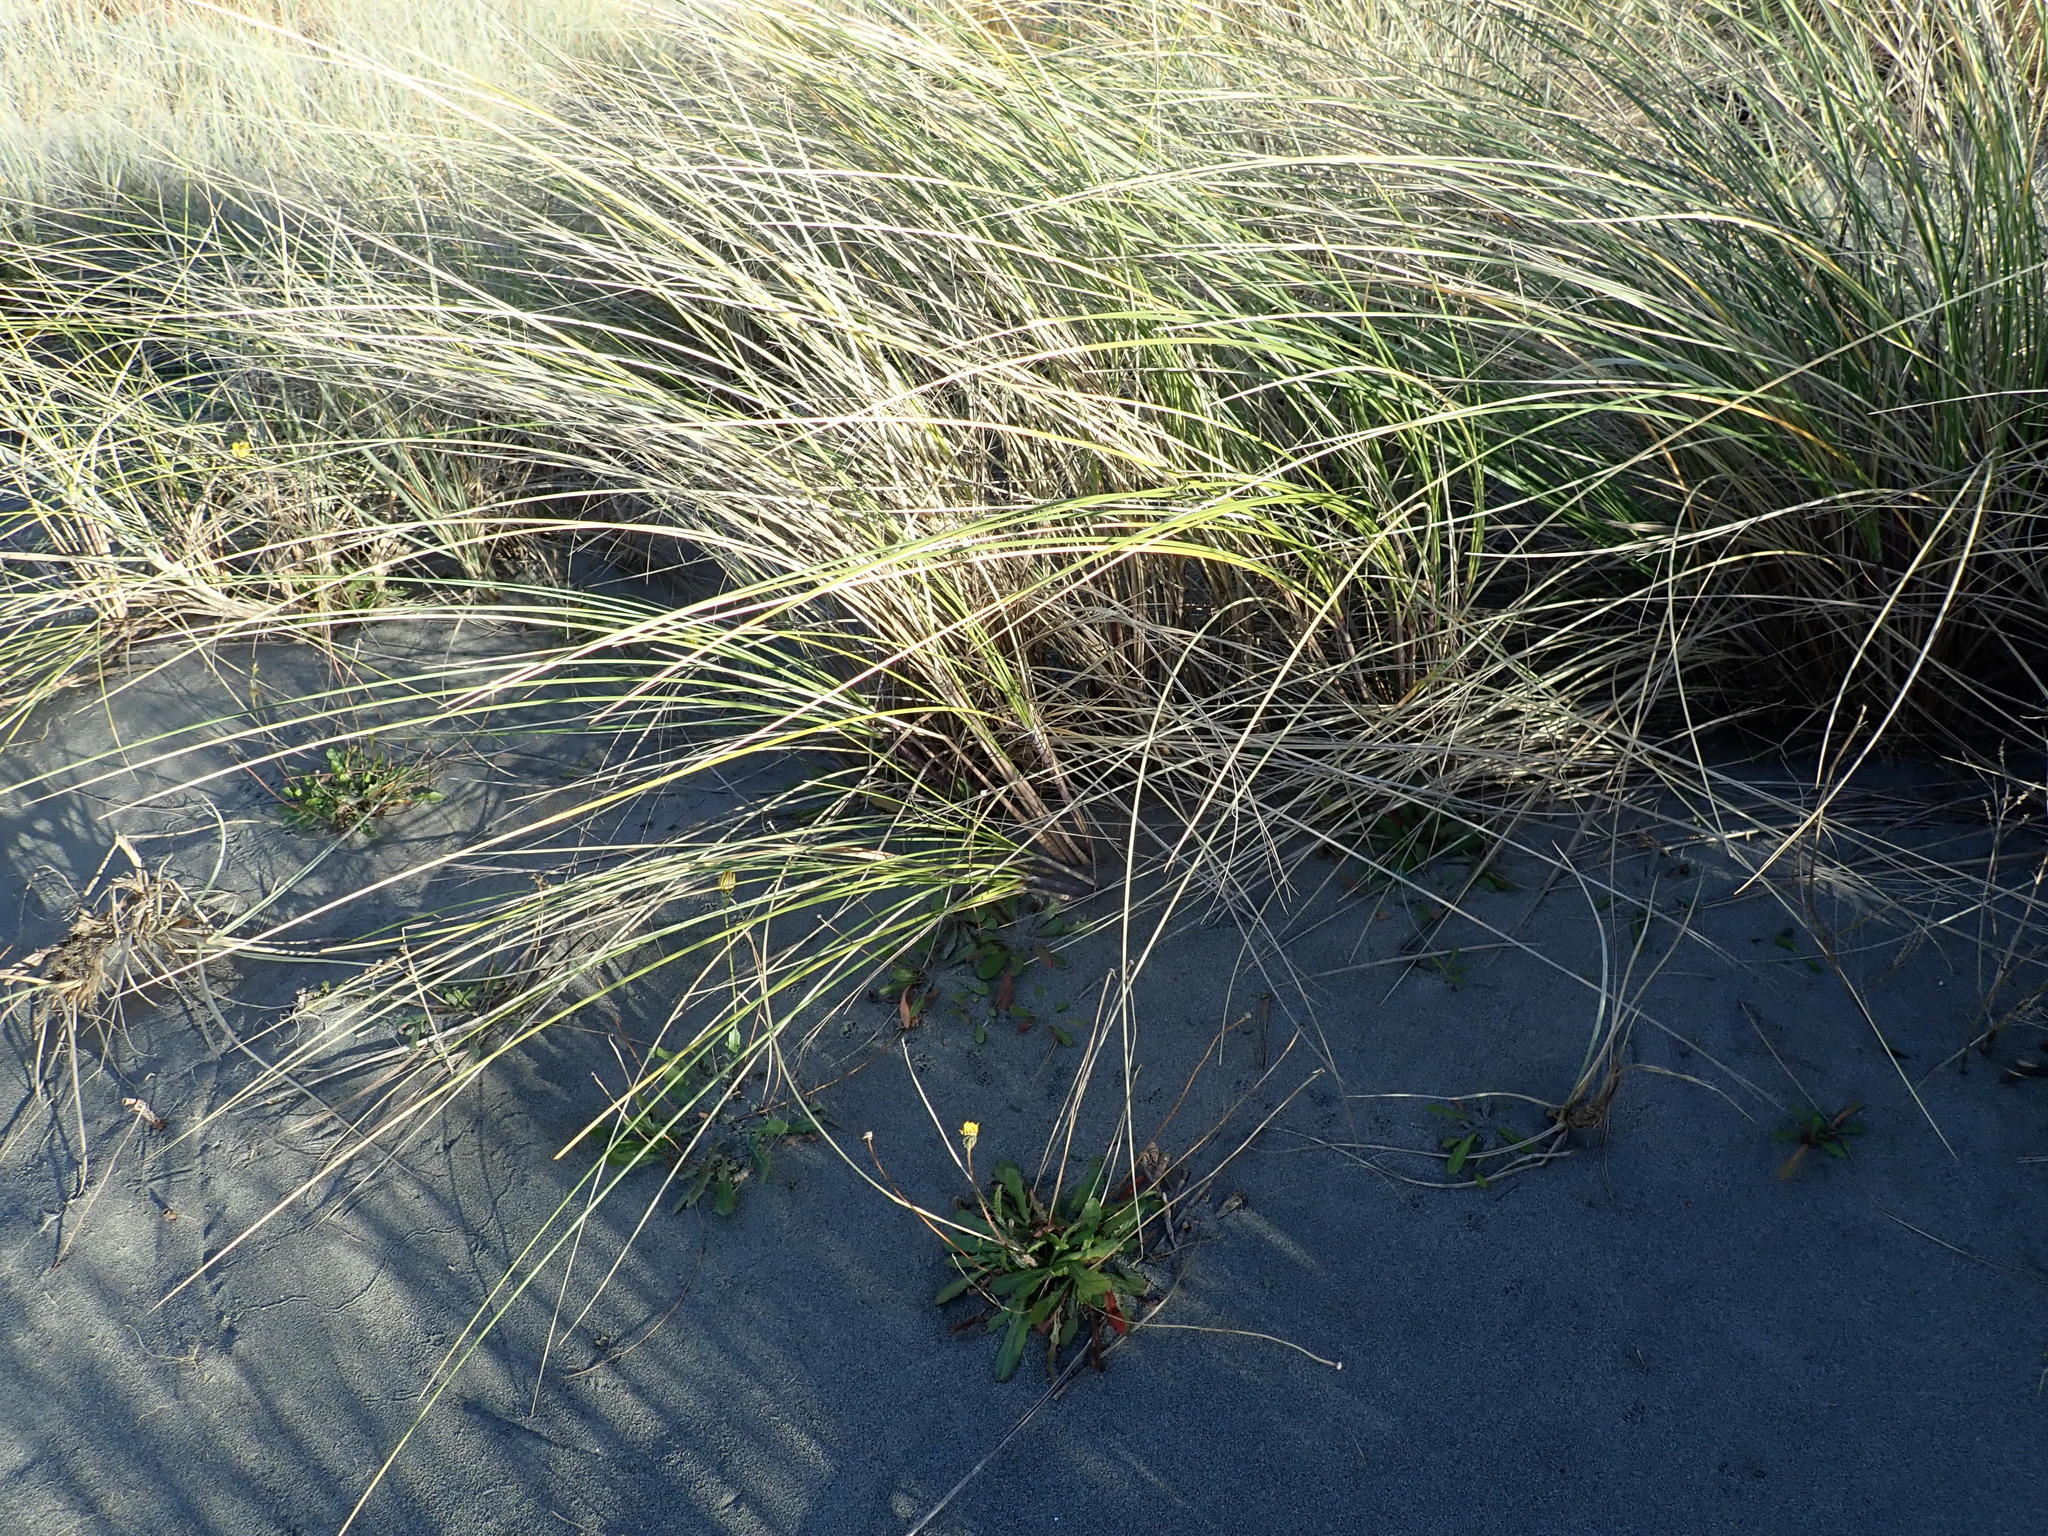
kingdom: Plantae
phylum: Tracheophyta
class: Liliopsida
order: Poales
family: Poaceae
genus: Calamagrostis
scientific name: Calamagrostis arenaria
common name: European beachgrass
